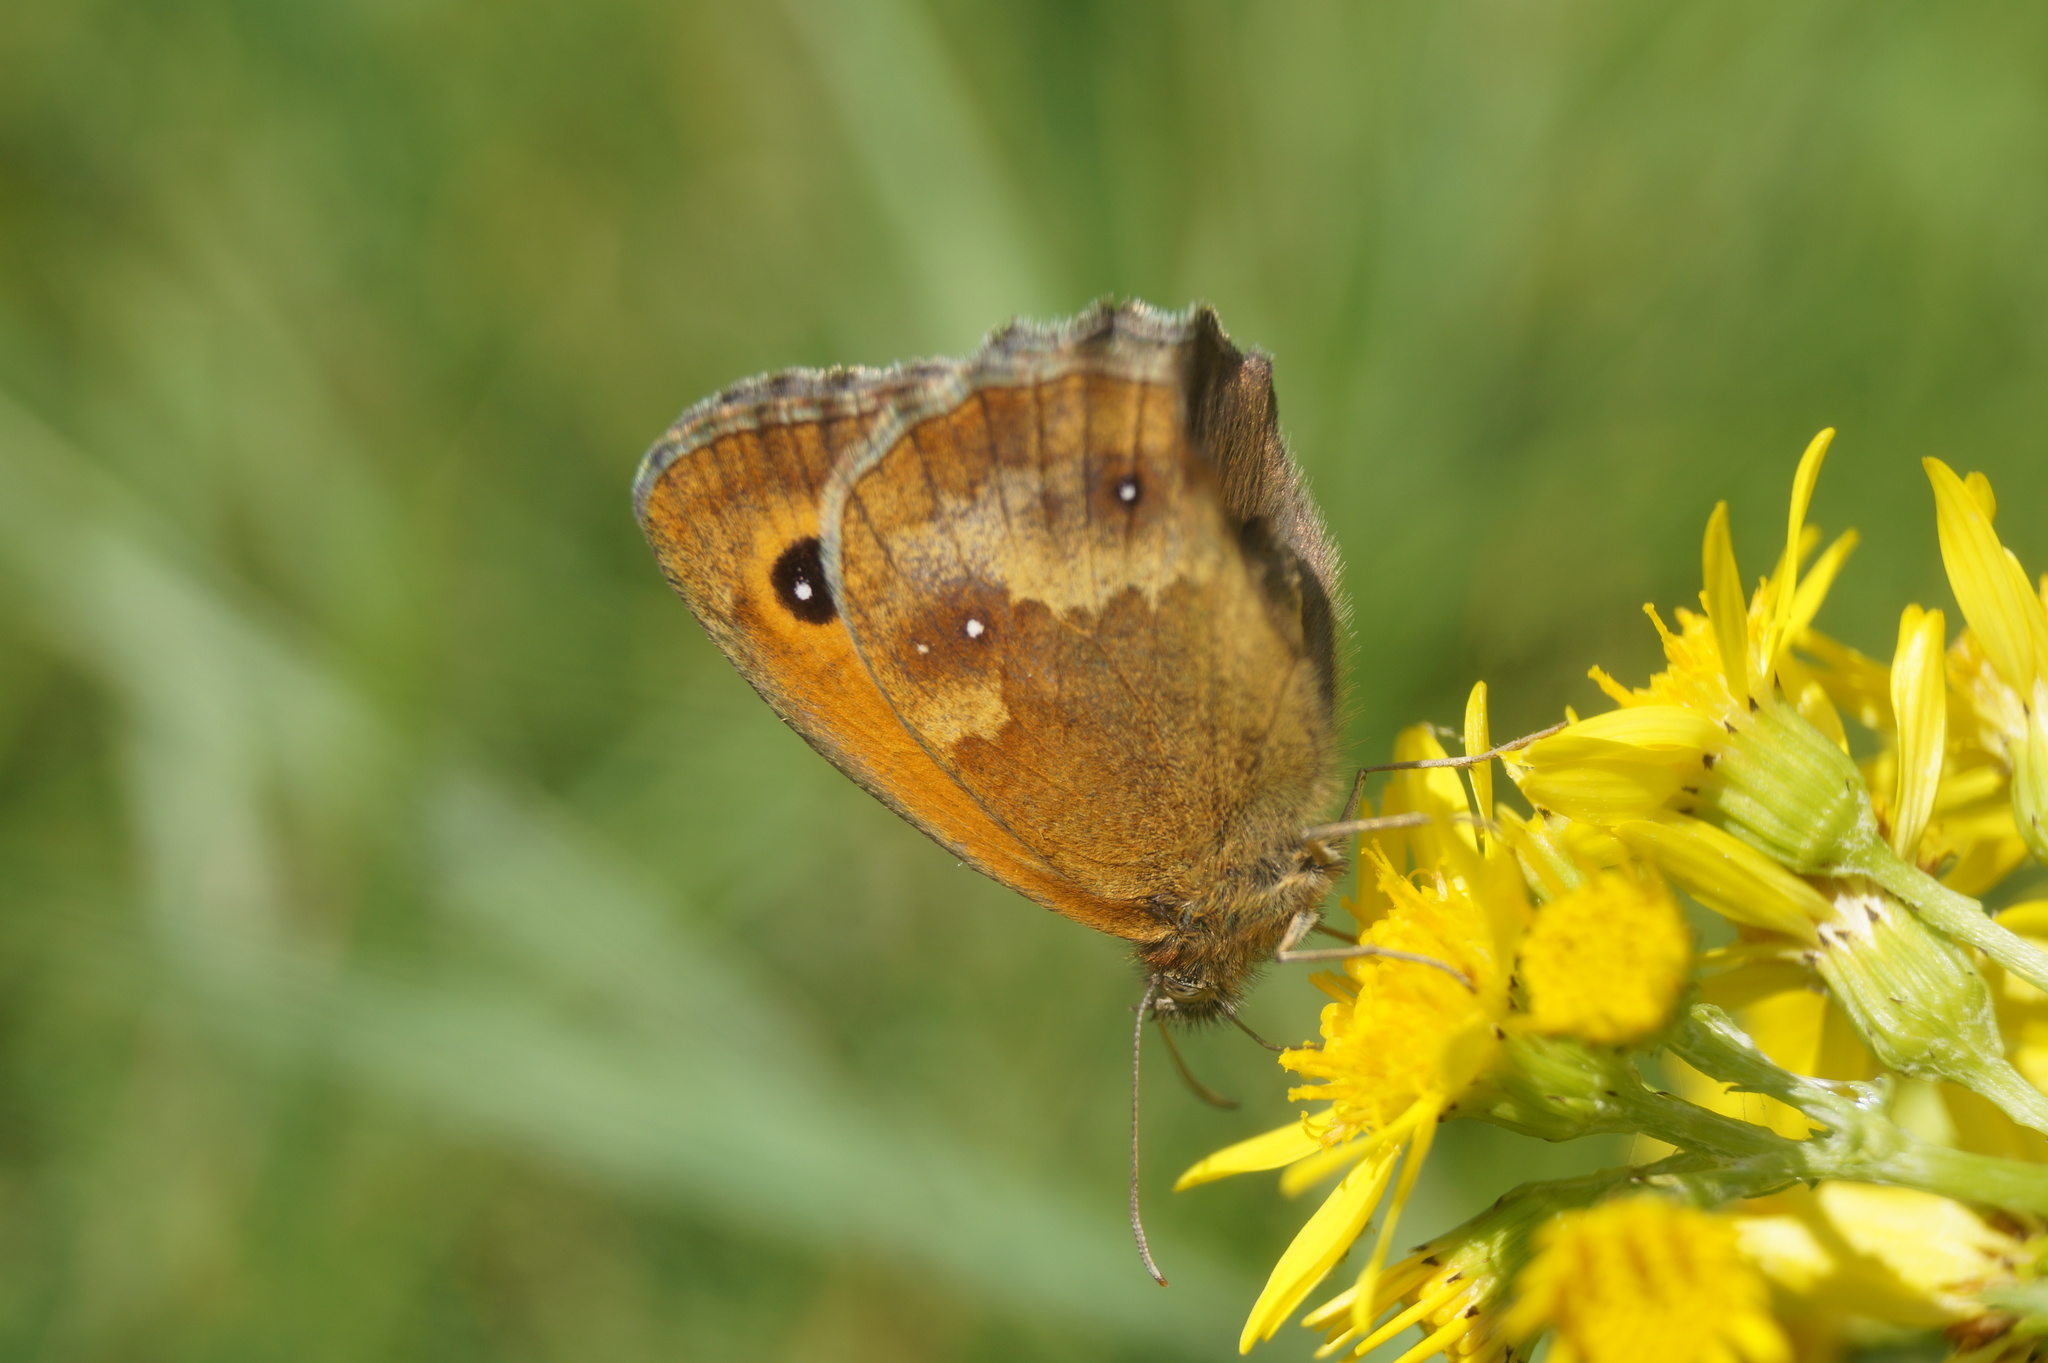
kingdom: Animalia
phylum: Arthropoda
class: Insecta
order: Lepidoptera
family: Nymphalidae
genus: Pyronia
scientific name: Pyronia tithonus
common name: Gatekeeper
